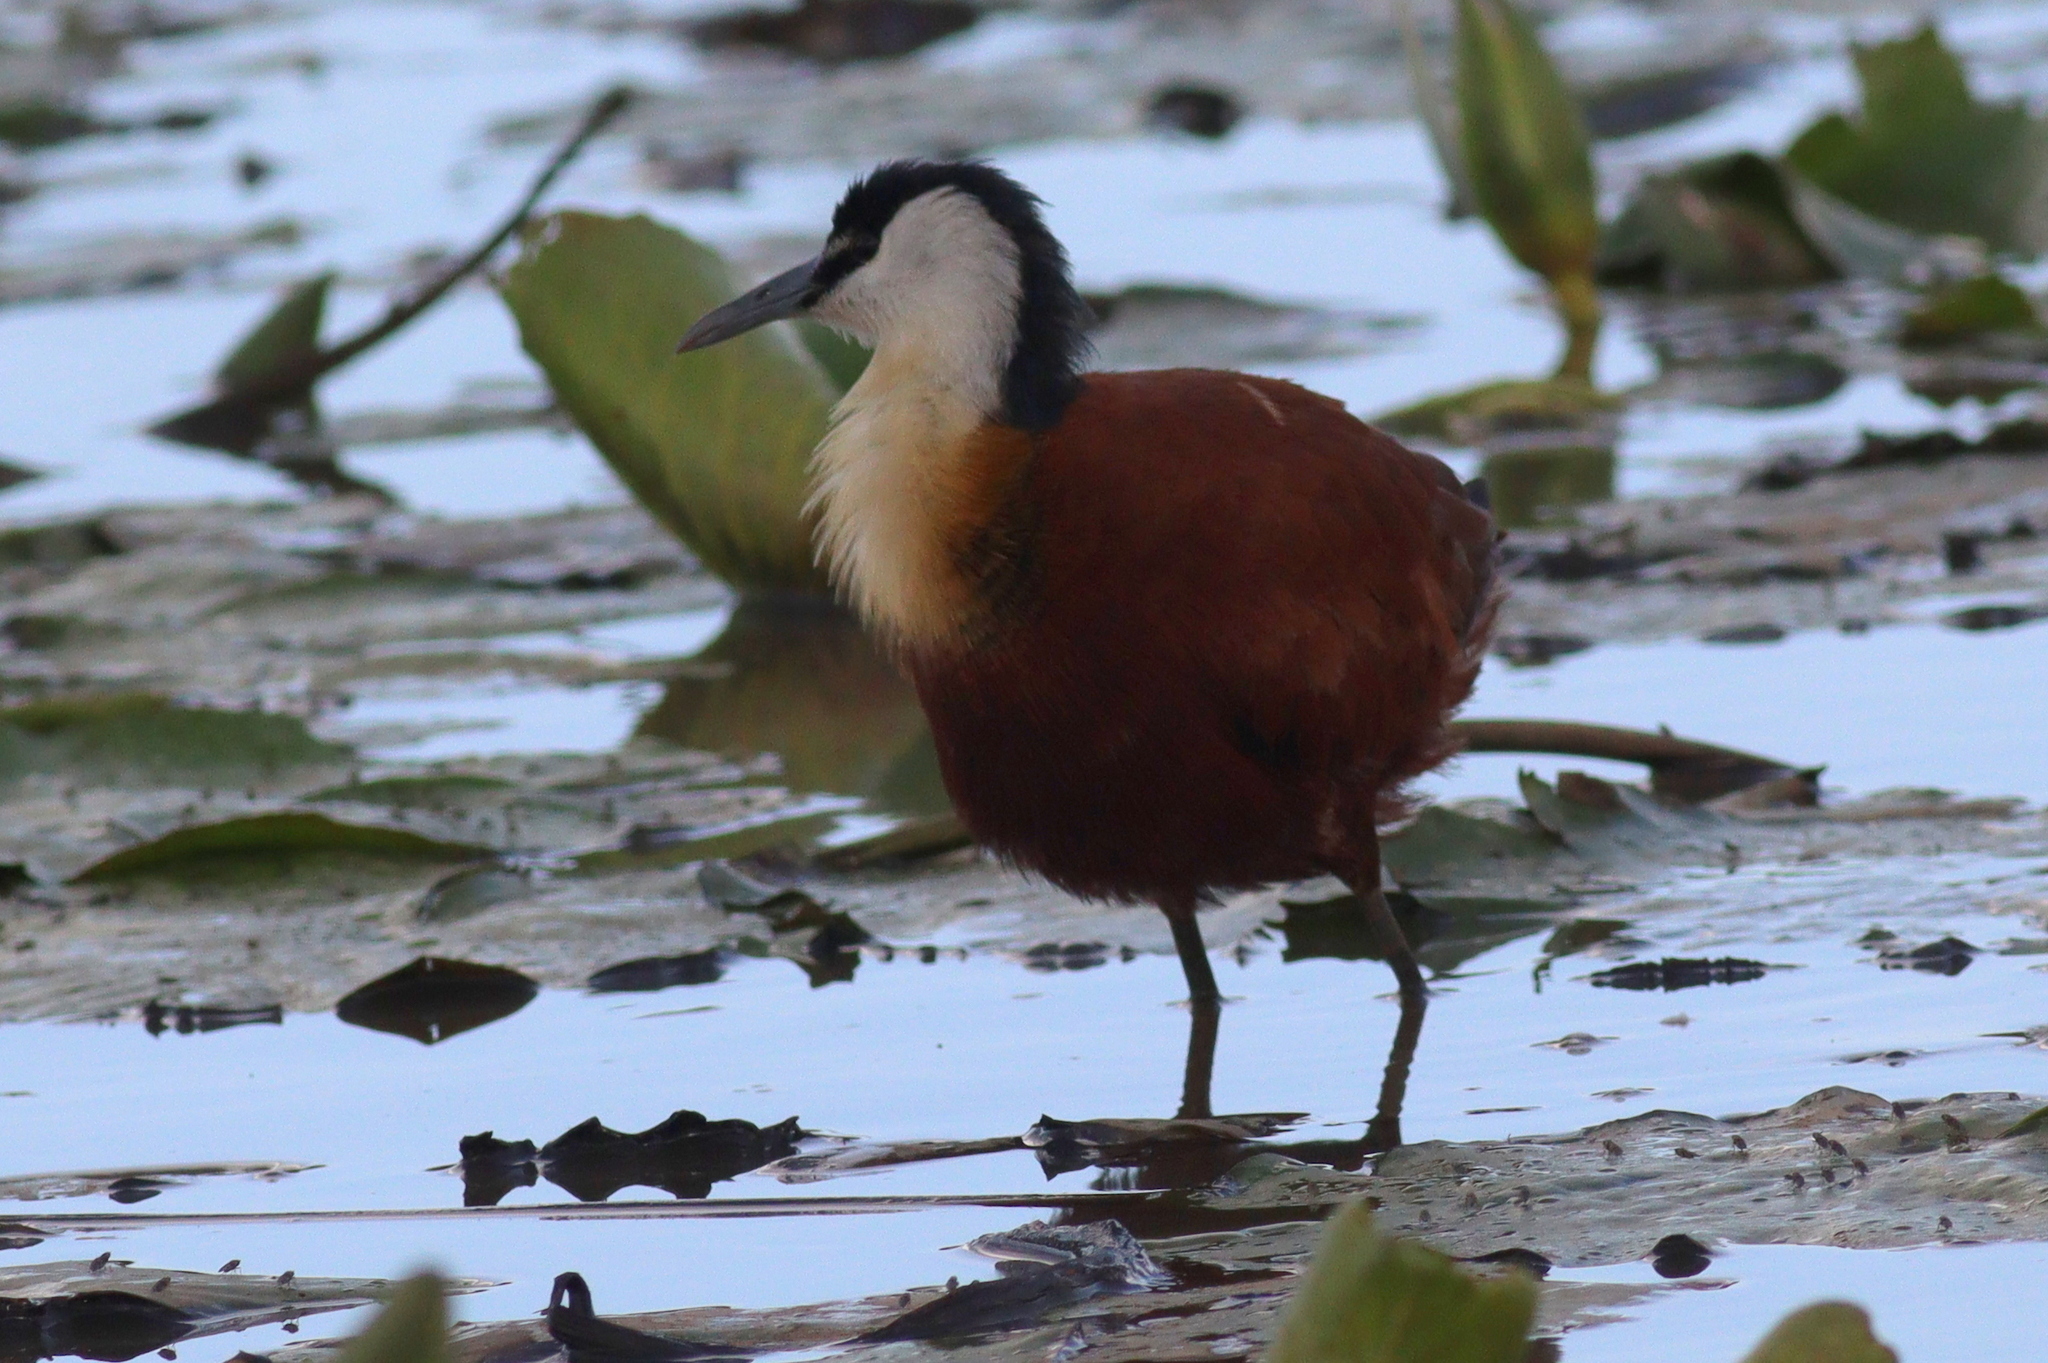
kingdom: Animalia
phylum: Chordata
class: Aves
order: Charadriiformes
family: Jacanidae
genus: Actophilornis
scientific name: Actophilornis africanus
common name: African jacana
